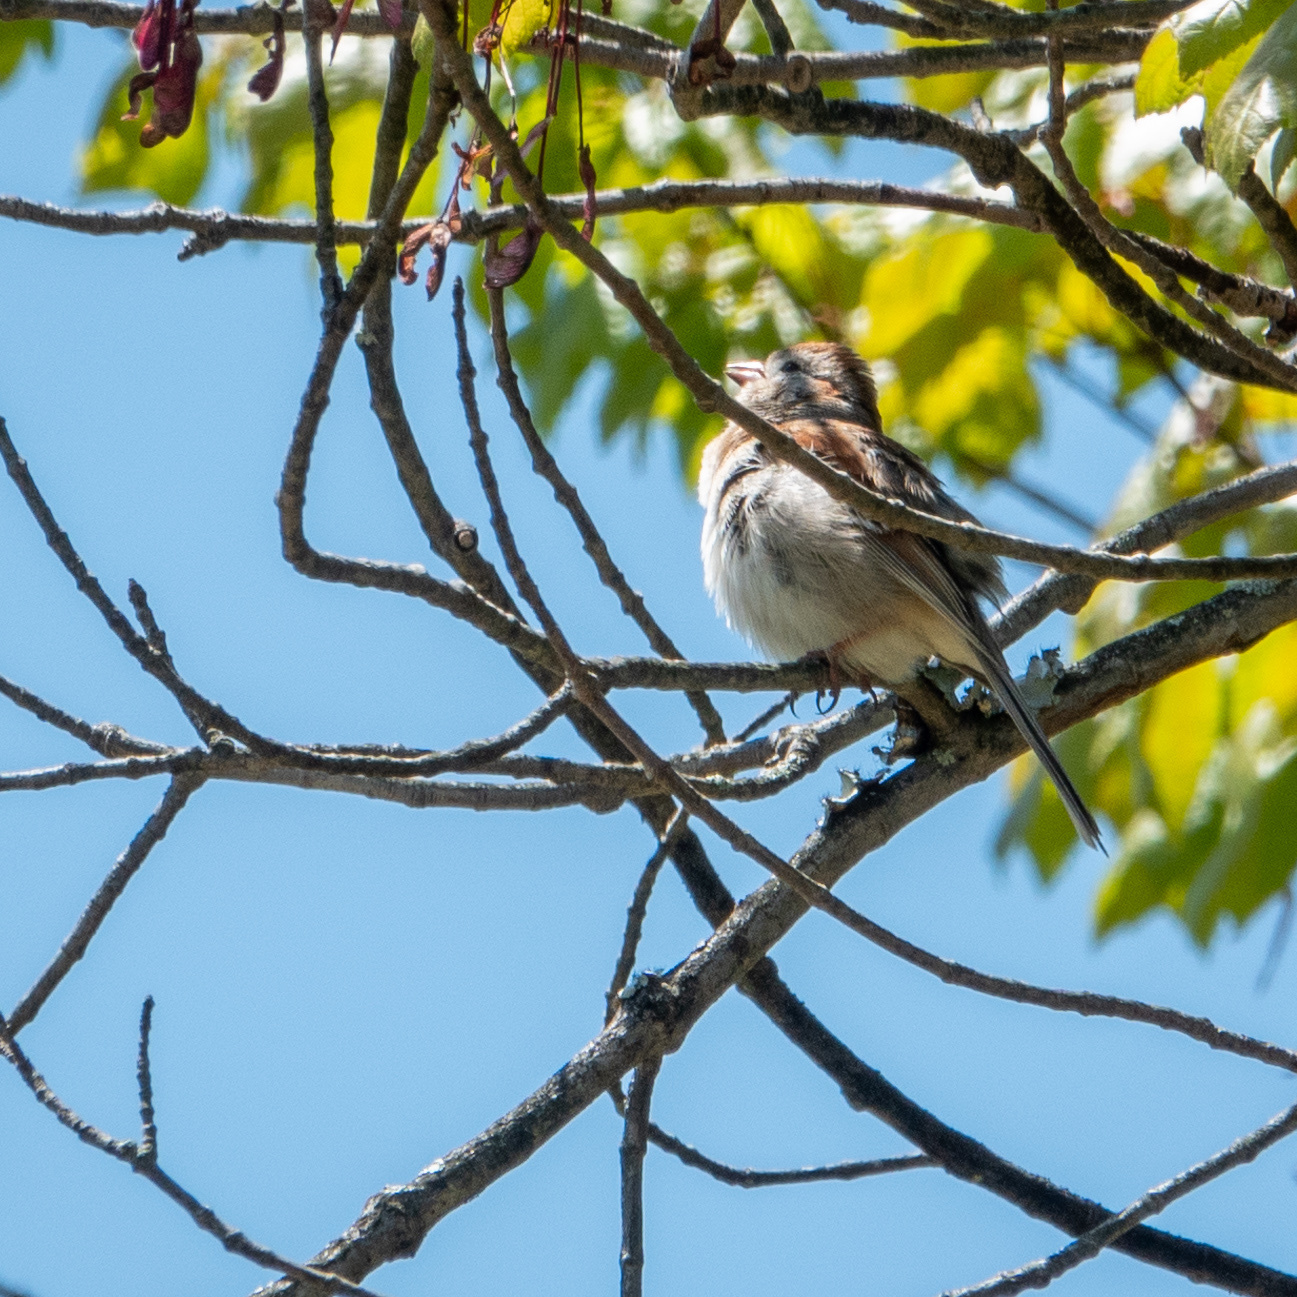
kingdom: Animalia
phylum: Chordata
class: Aves
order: Passeriformes
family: Passerellidae
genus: Spizella
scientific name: Spizella pusilla
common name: Field sparrow
